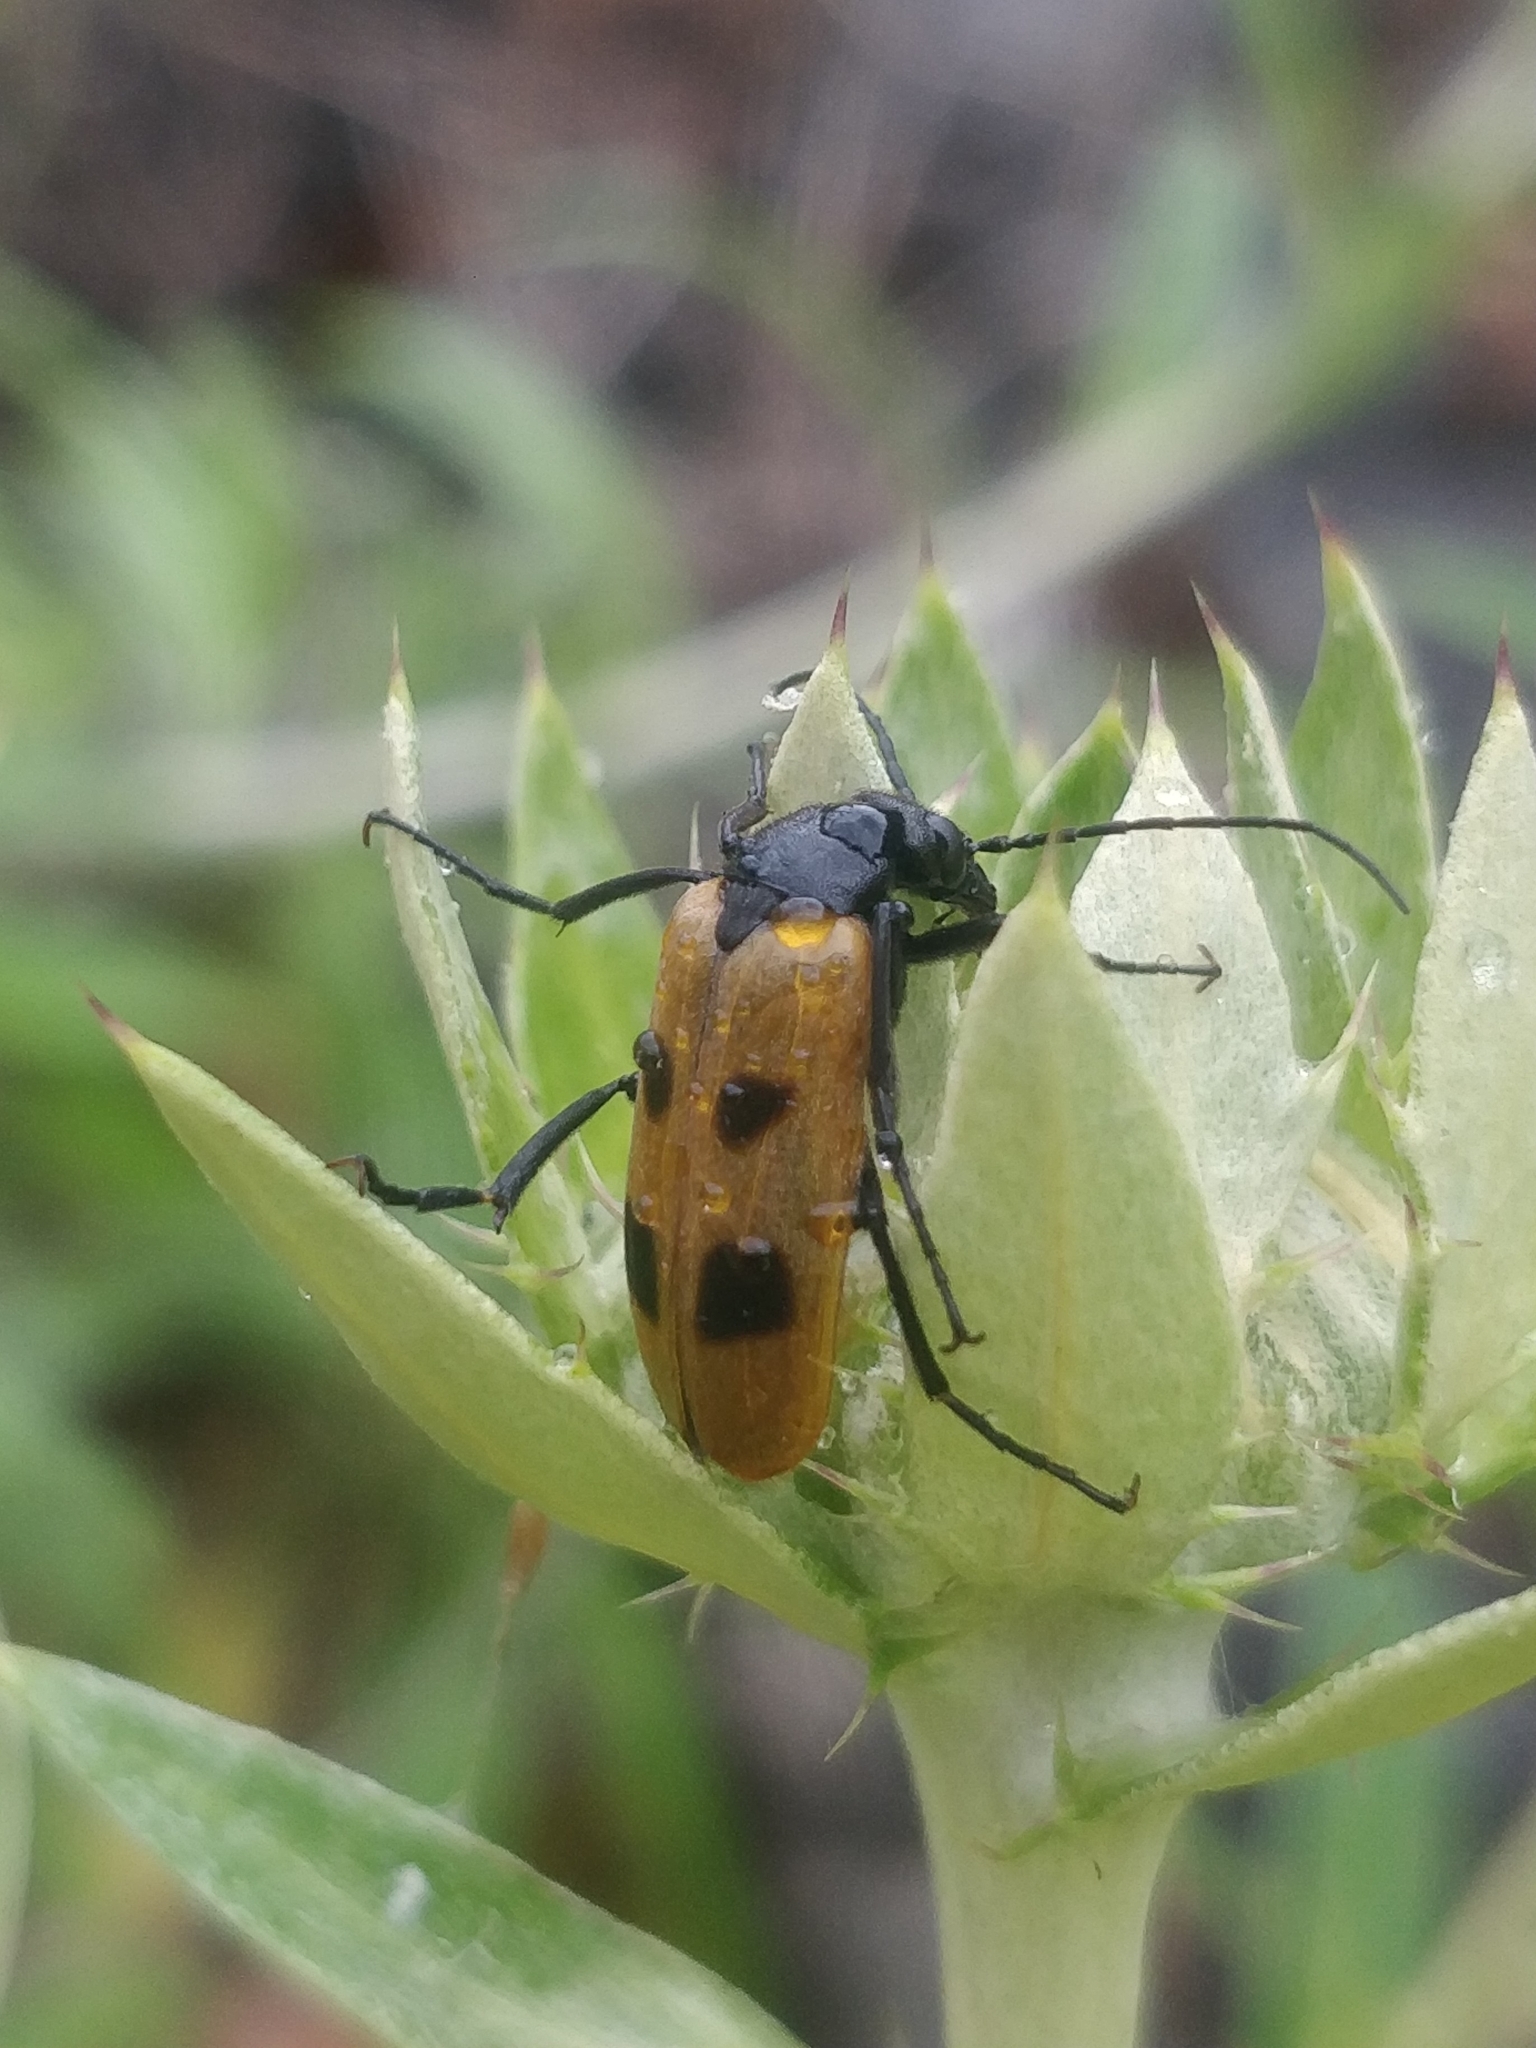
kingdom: Animalia
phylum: Arthropoda
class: Insecta
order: Coleoptera
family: Meloidae
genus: Euzonitis
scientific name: Euzonitis quadrimaculata
